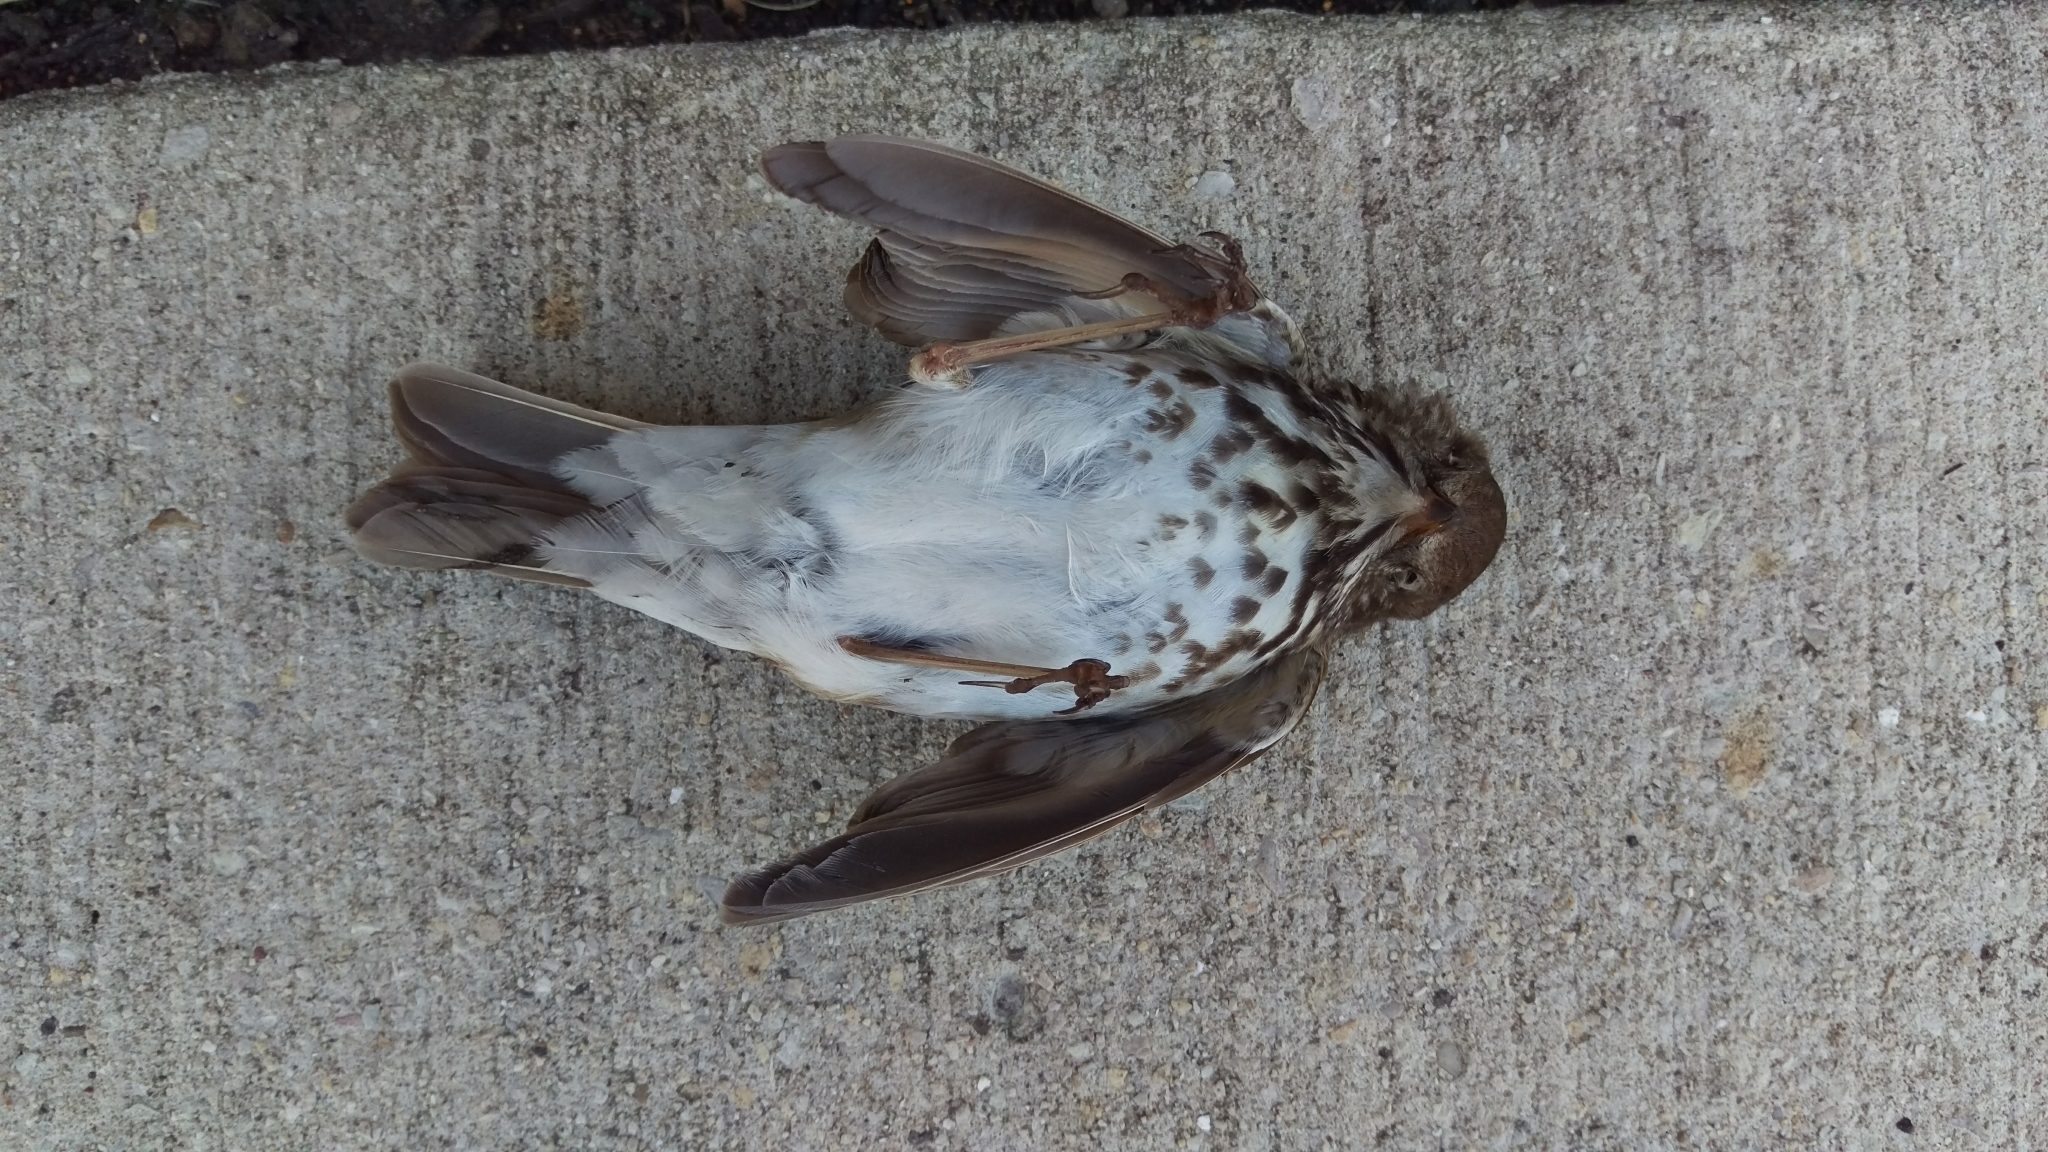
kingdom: Animalia
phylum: Chordata
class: Aves
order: Passeriformes
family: Turdidae
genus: Catharus
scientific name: Catharus guttatus
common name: Hermit thrush
